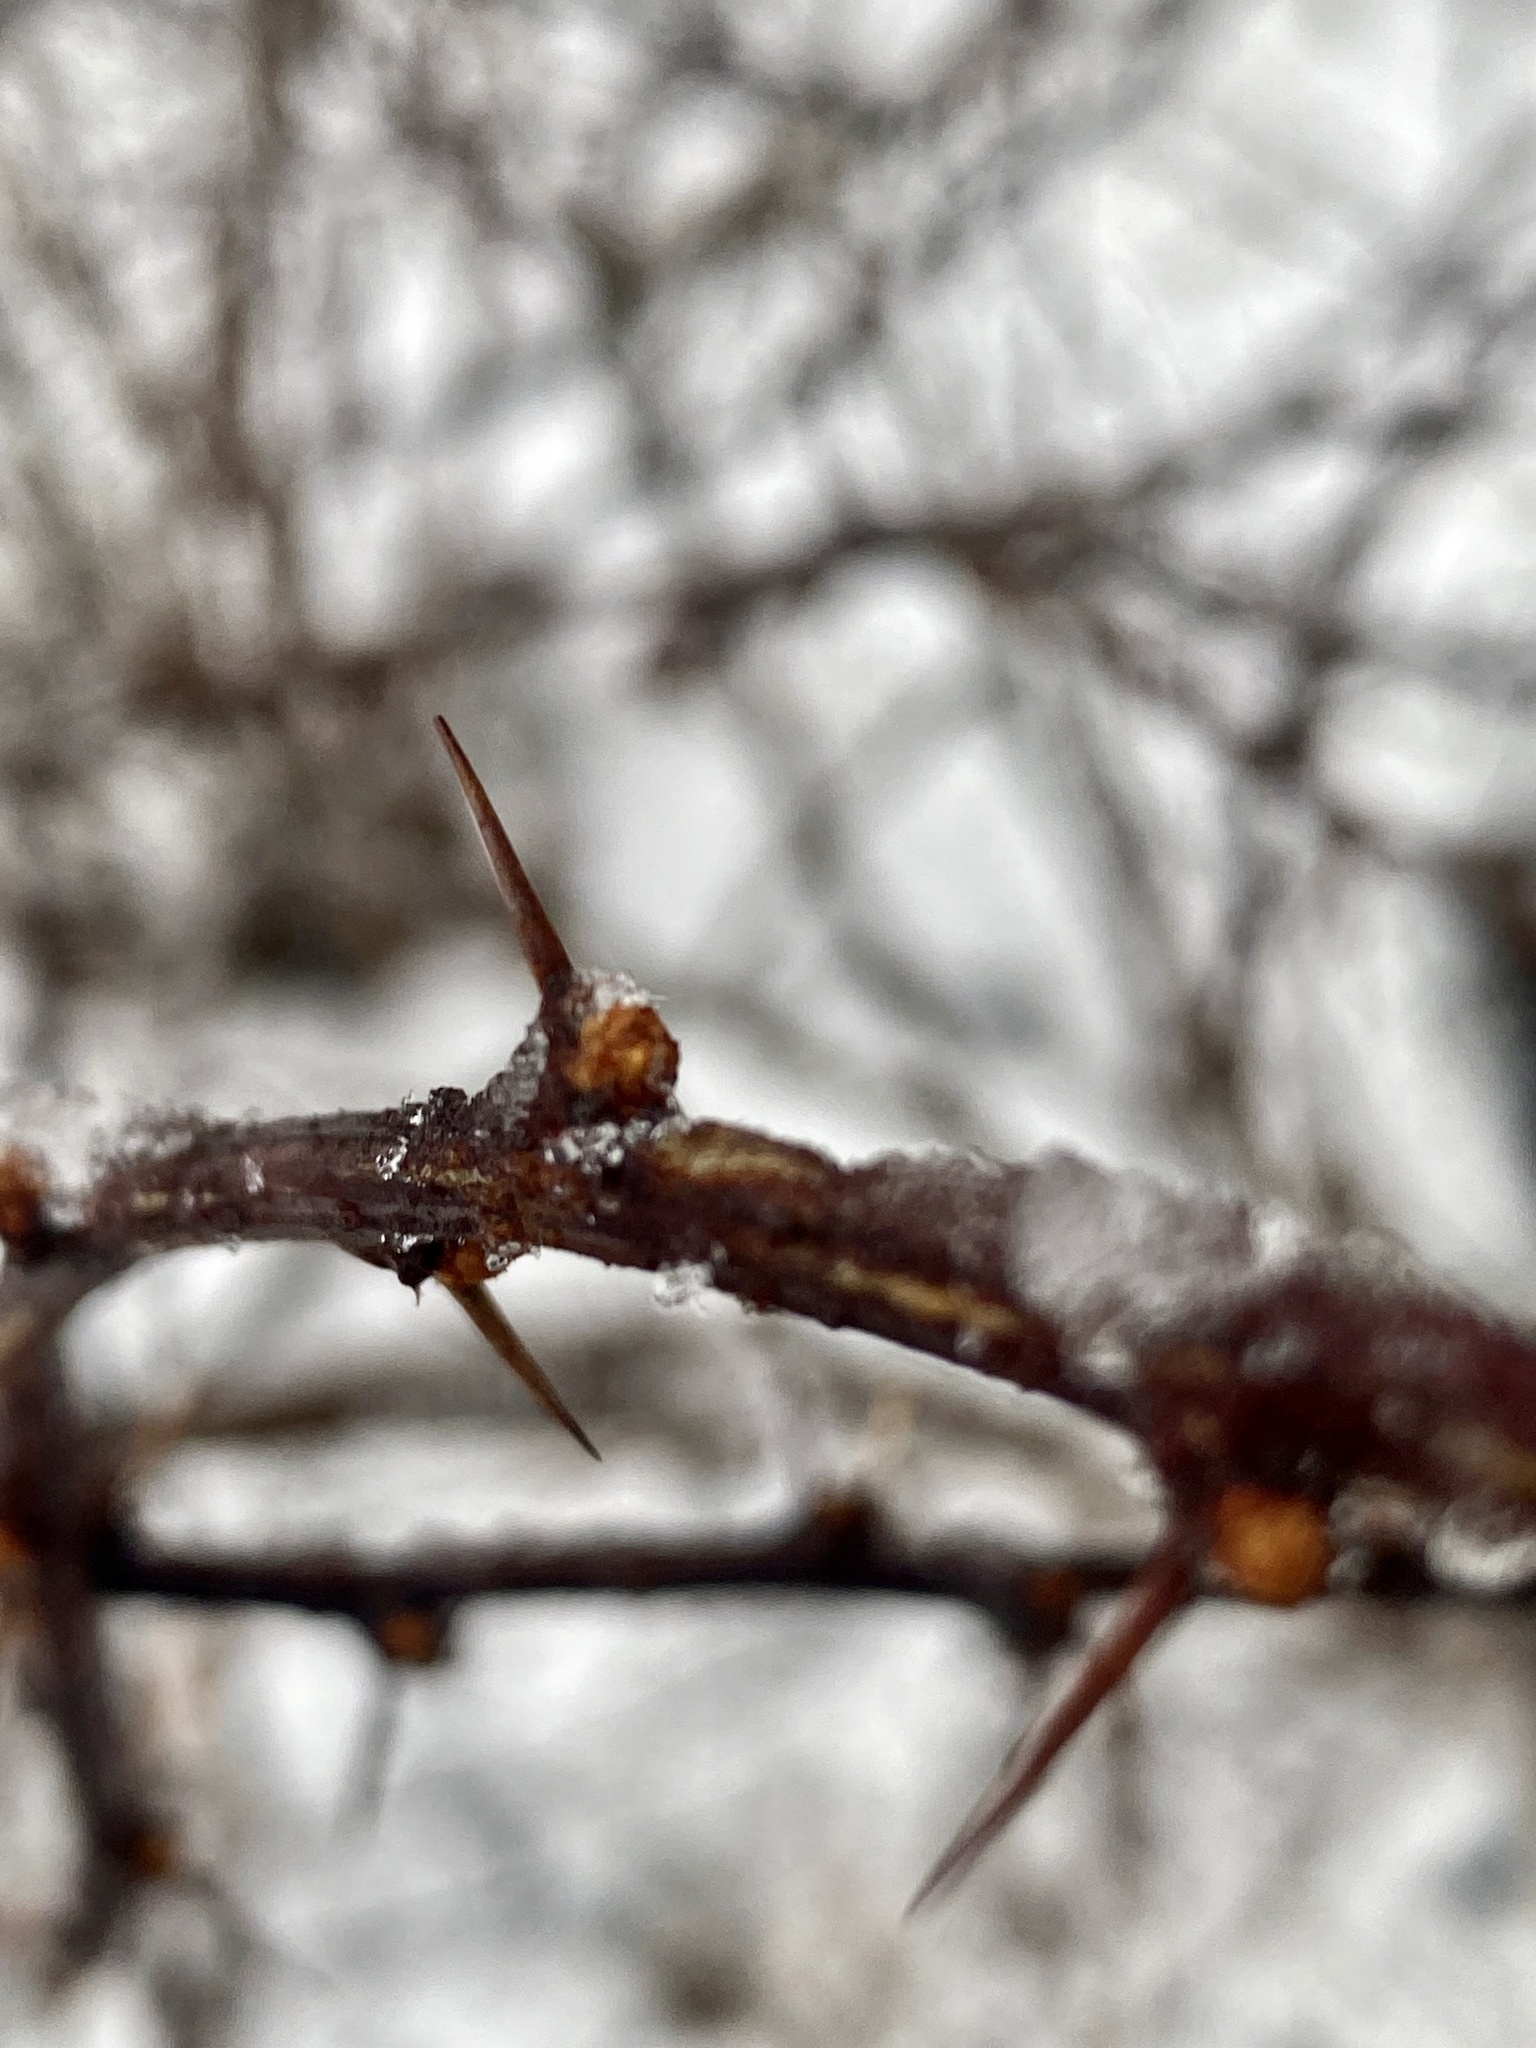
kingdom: Plantae
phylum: Tracheophyta
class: Magnoliopsida
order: Ranunculales
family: Berberidaceae
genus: Berberis
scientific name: Berberis thunbergii
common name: Japanese barberry
